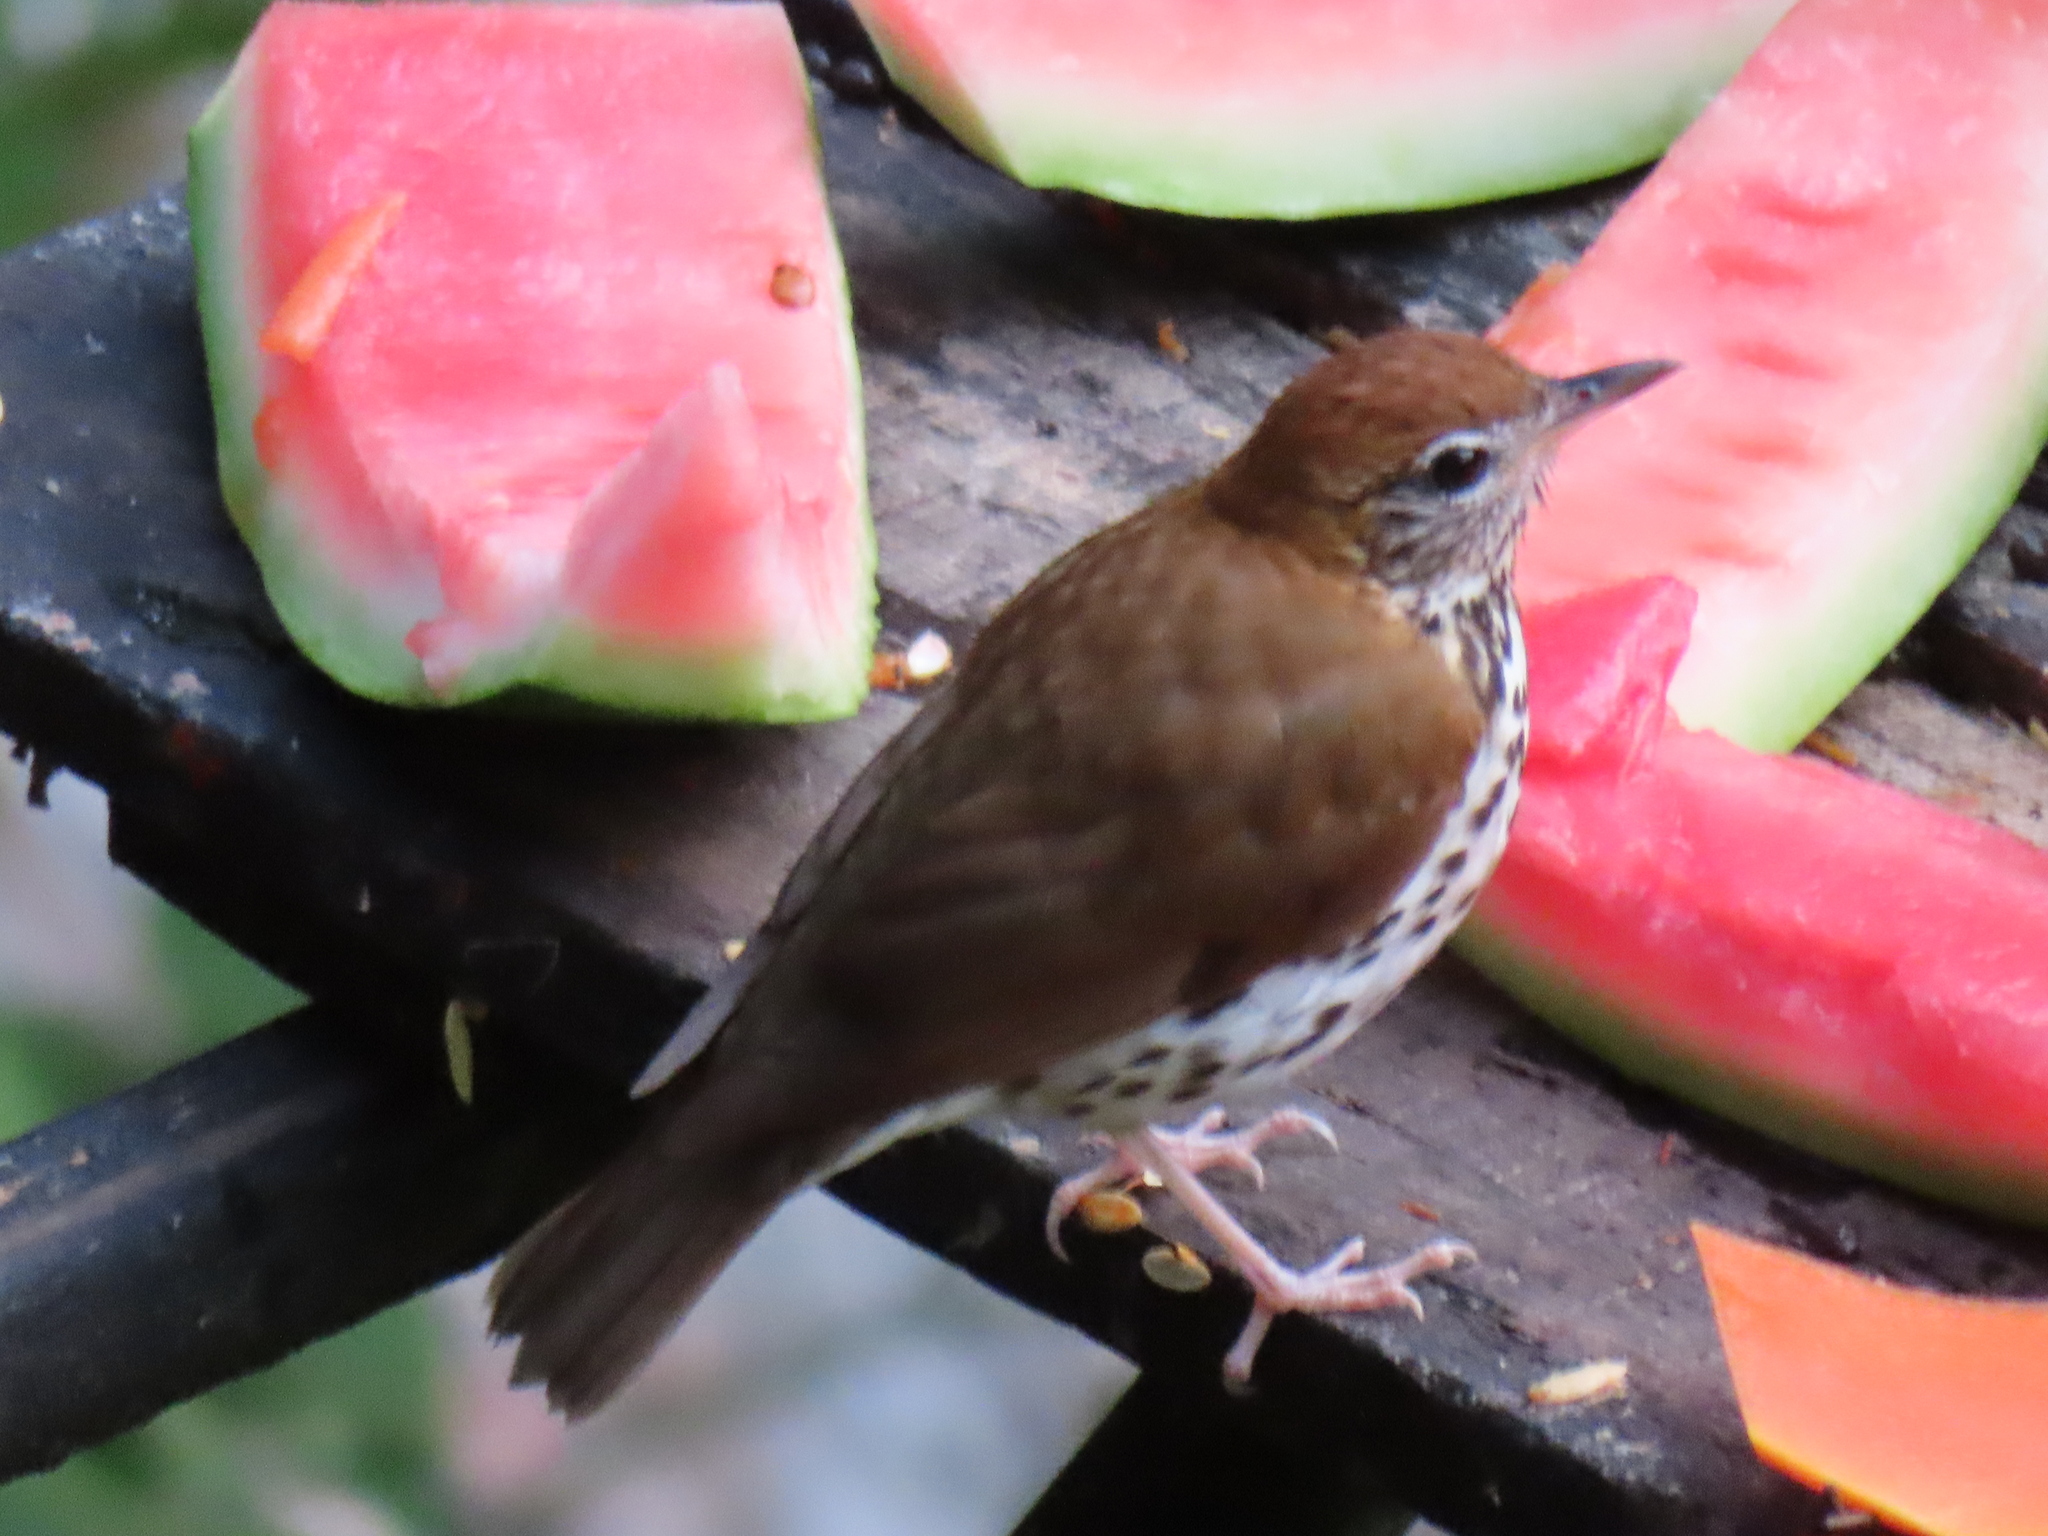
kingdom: Animalia
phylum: Chordata
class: Aves
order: Passeriformes
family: Turdidae
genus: Hylocichla
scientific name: Hylocichla mustelina
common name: Wood thrush
